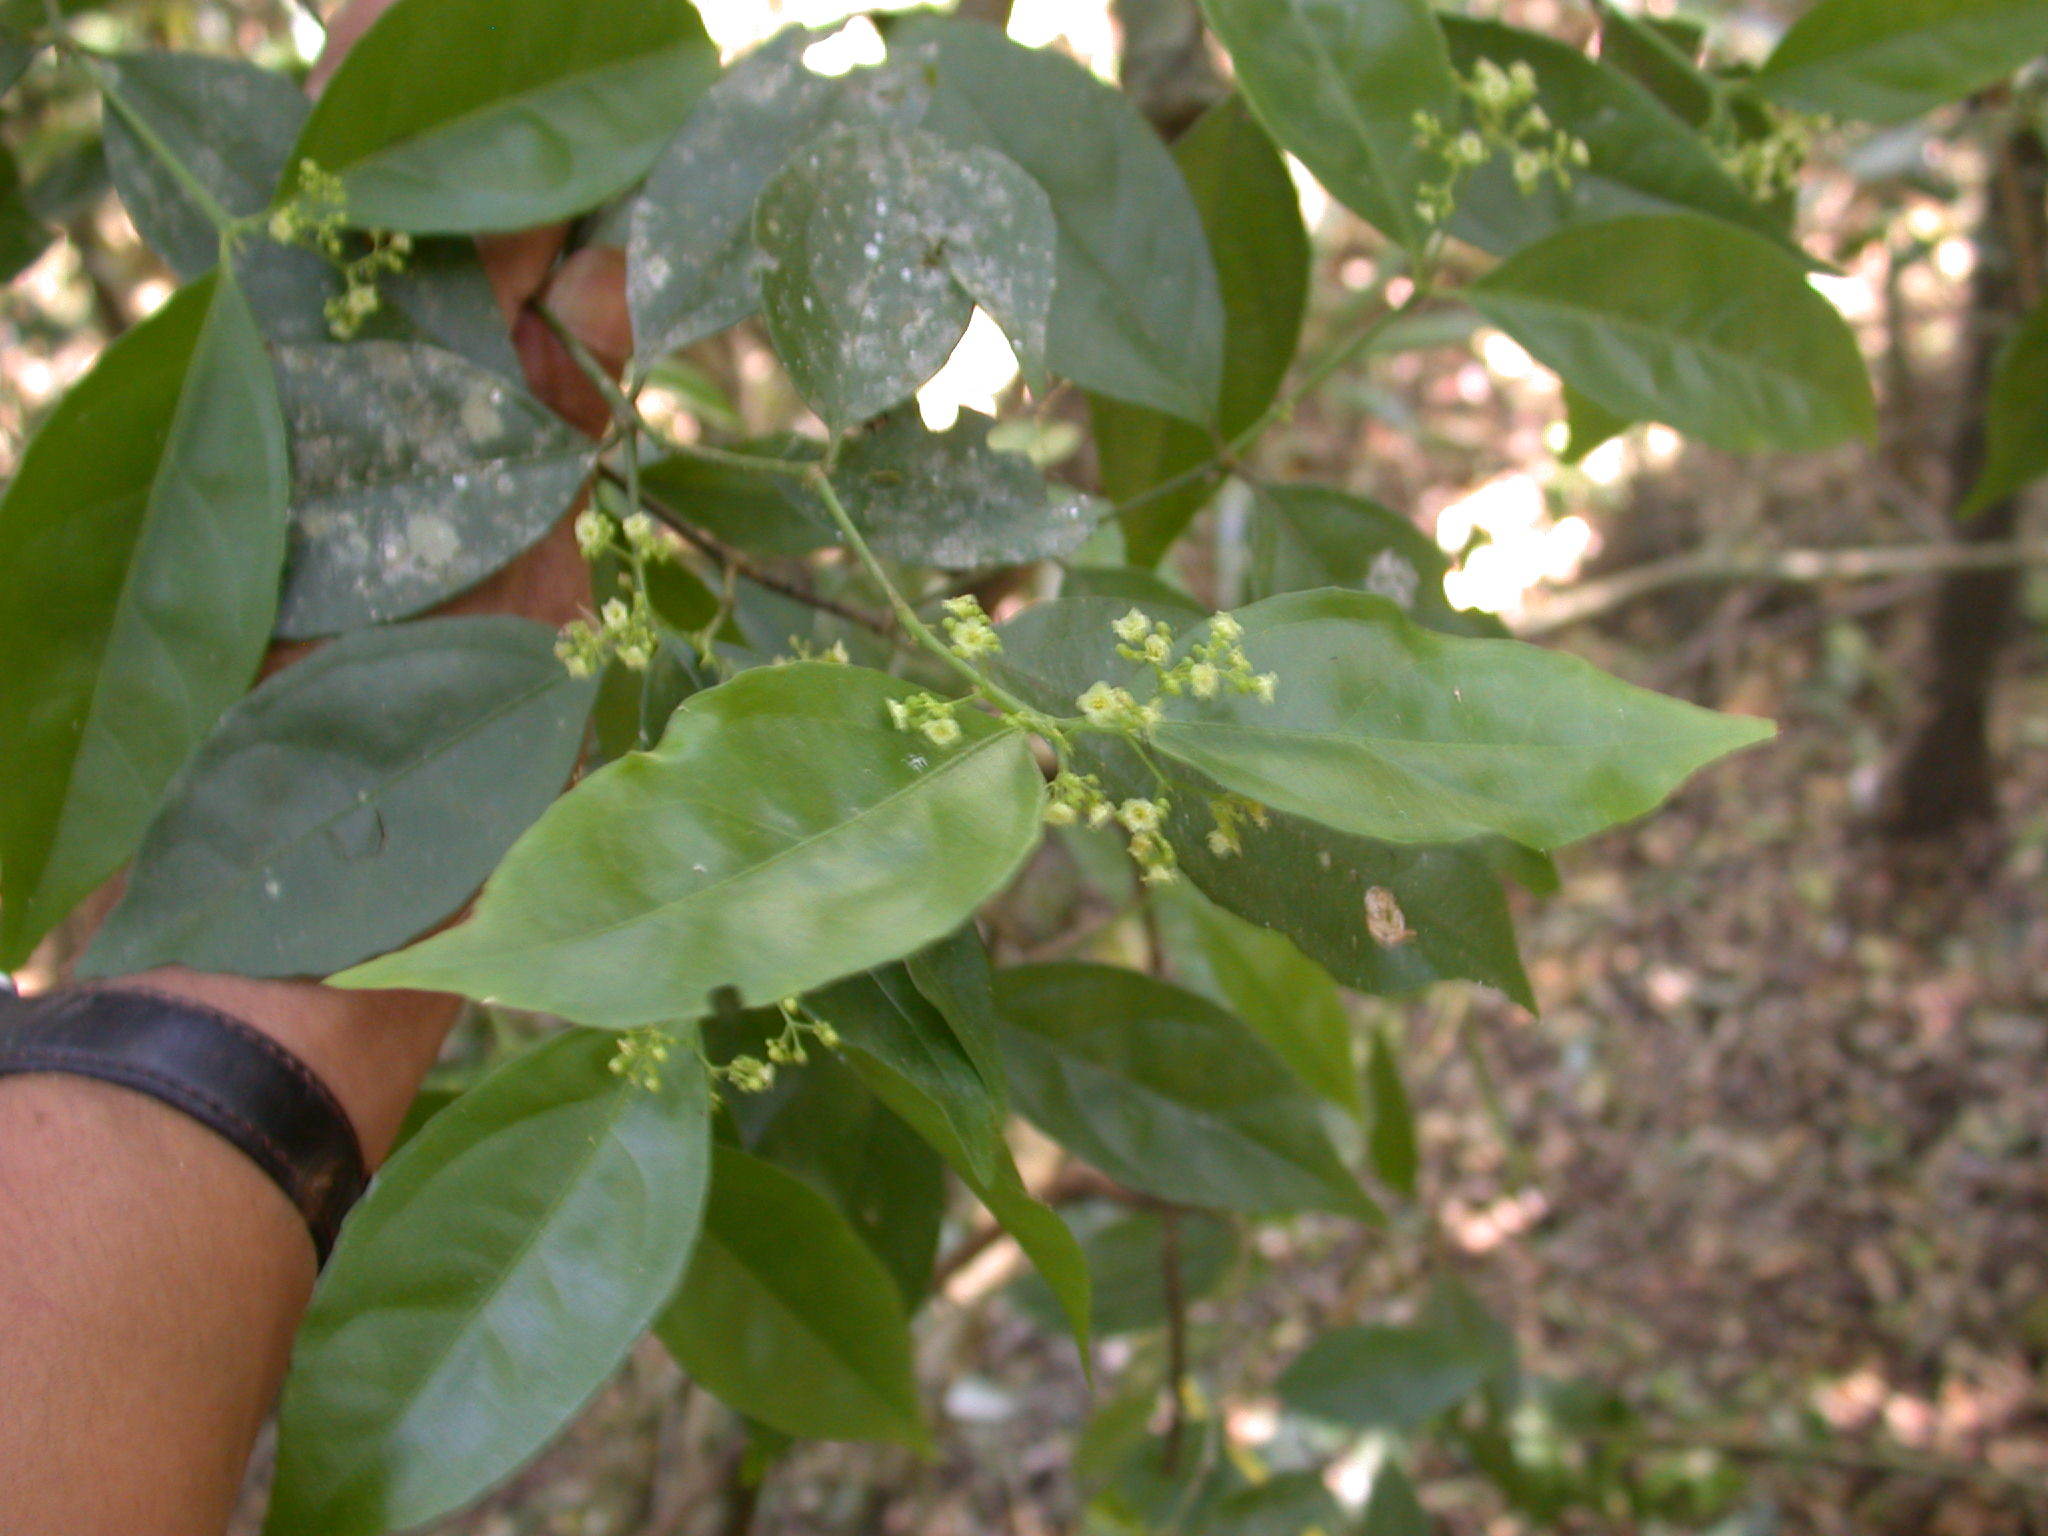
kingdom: Plantae
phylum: Tracheophyta
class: Magnoliopsida
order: Celastrales
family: Celastraceae
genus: Crossopetalum
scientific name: Crossopetalum parviflorum
